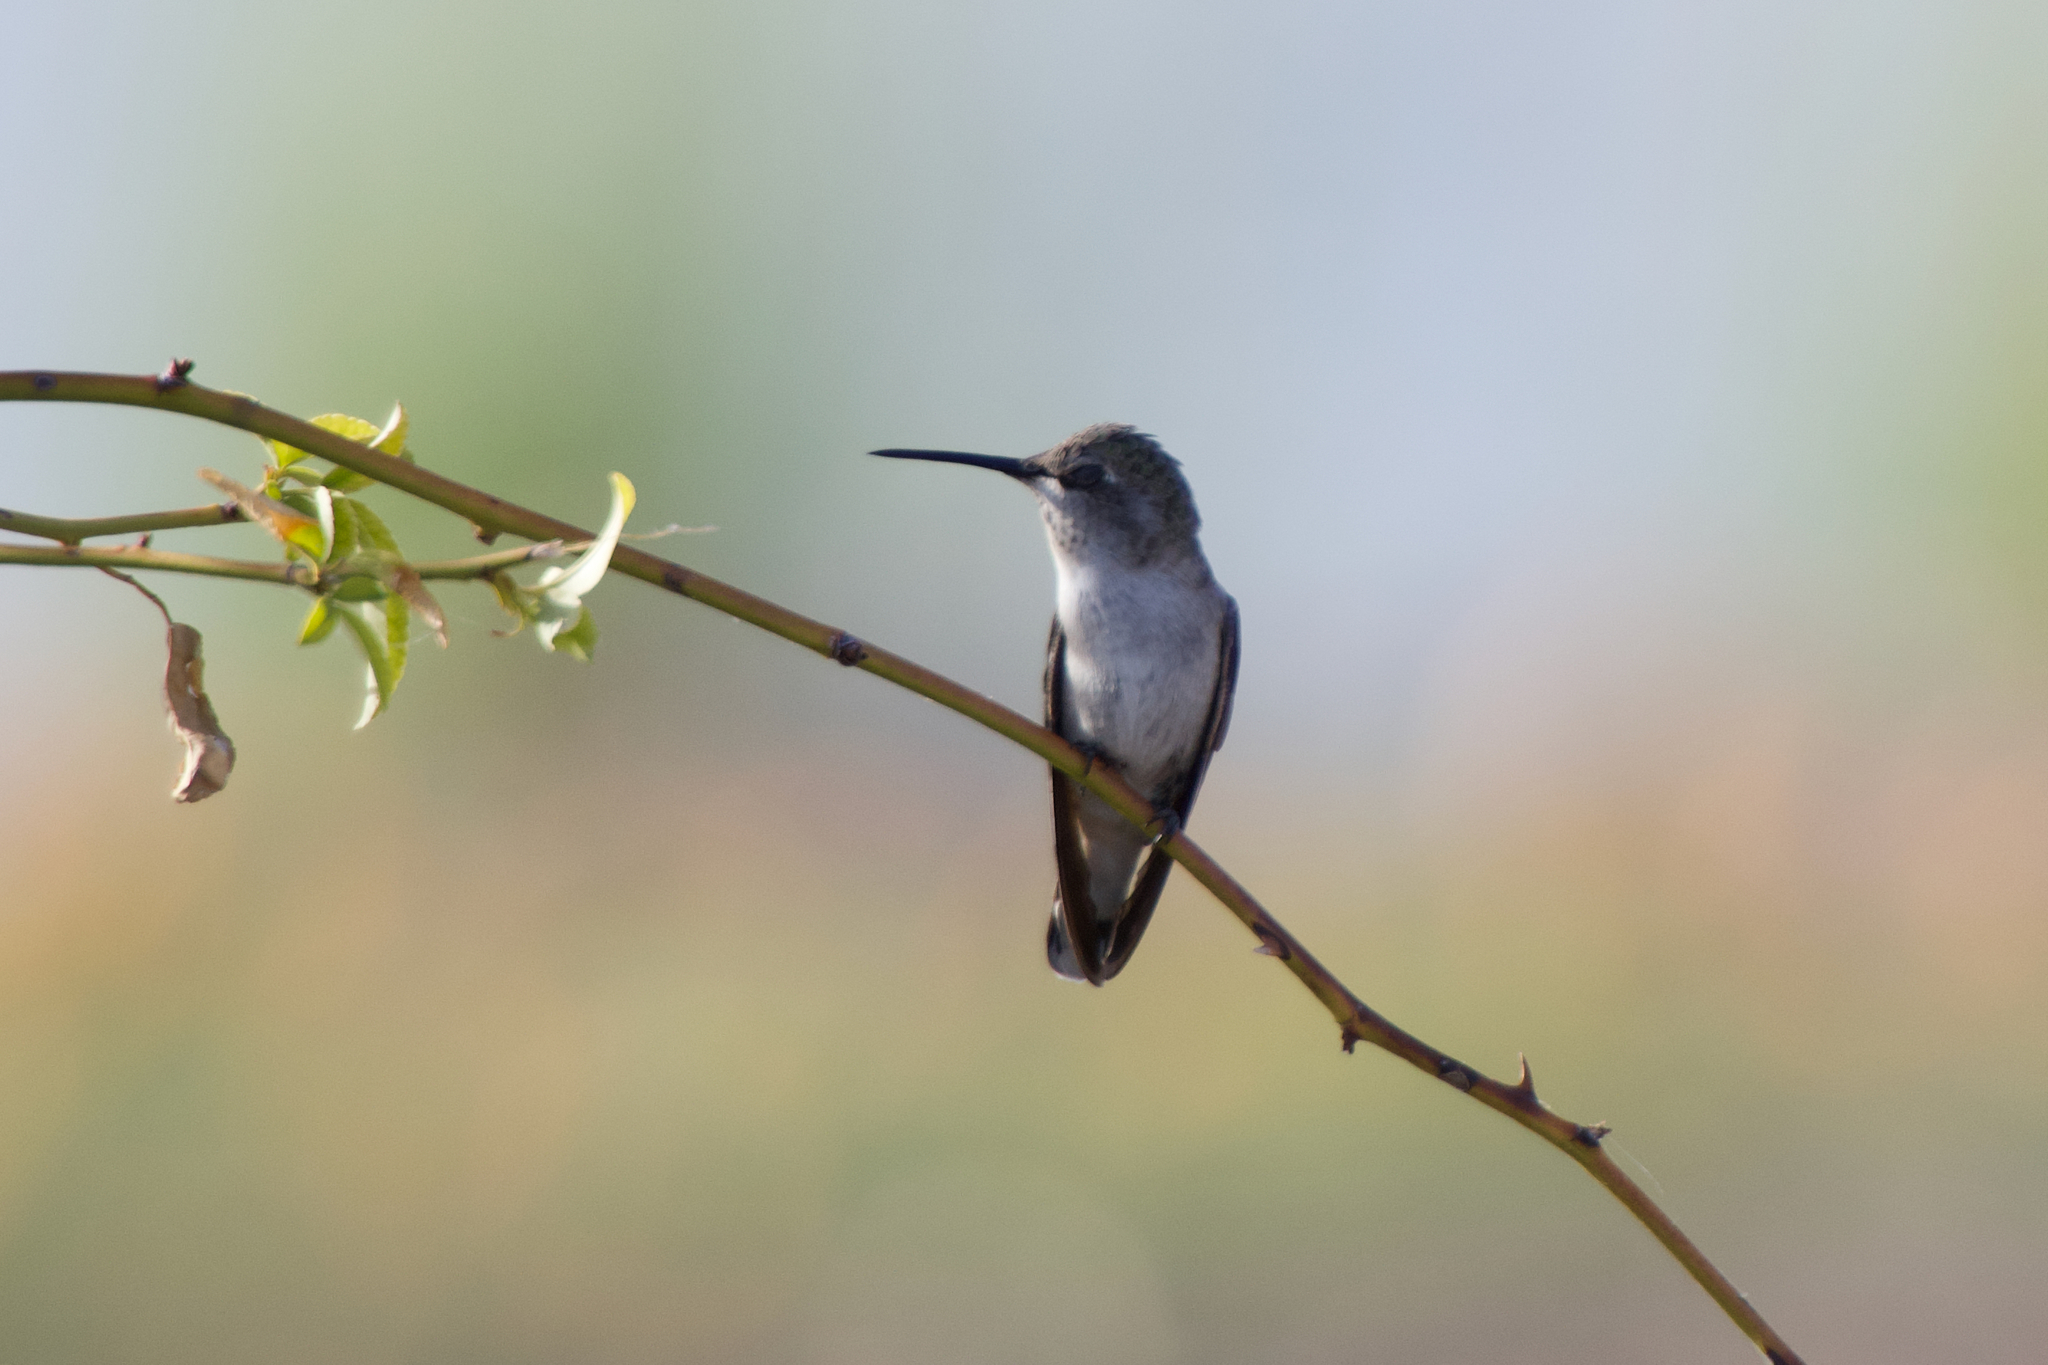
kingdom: Animalia
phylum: Chordata
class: Aves
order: Apodiformes
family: Trochilidae
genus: Calypte
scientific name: Calypte costae
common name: Costa's hummingbird
